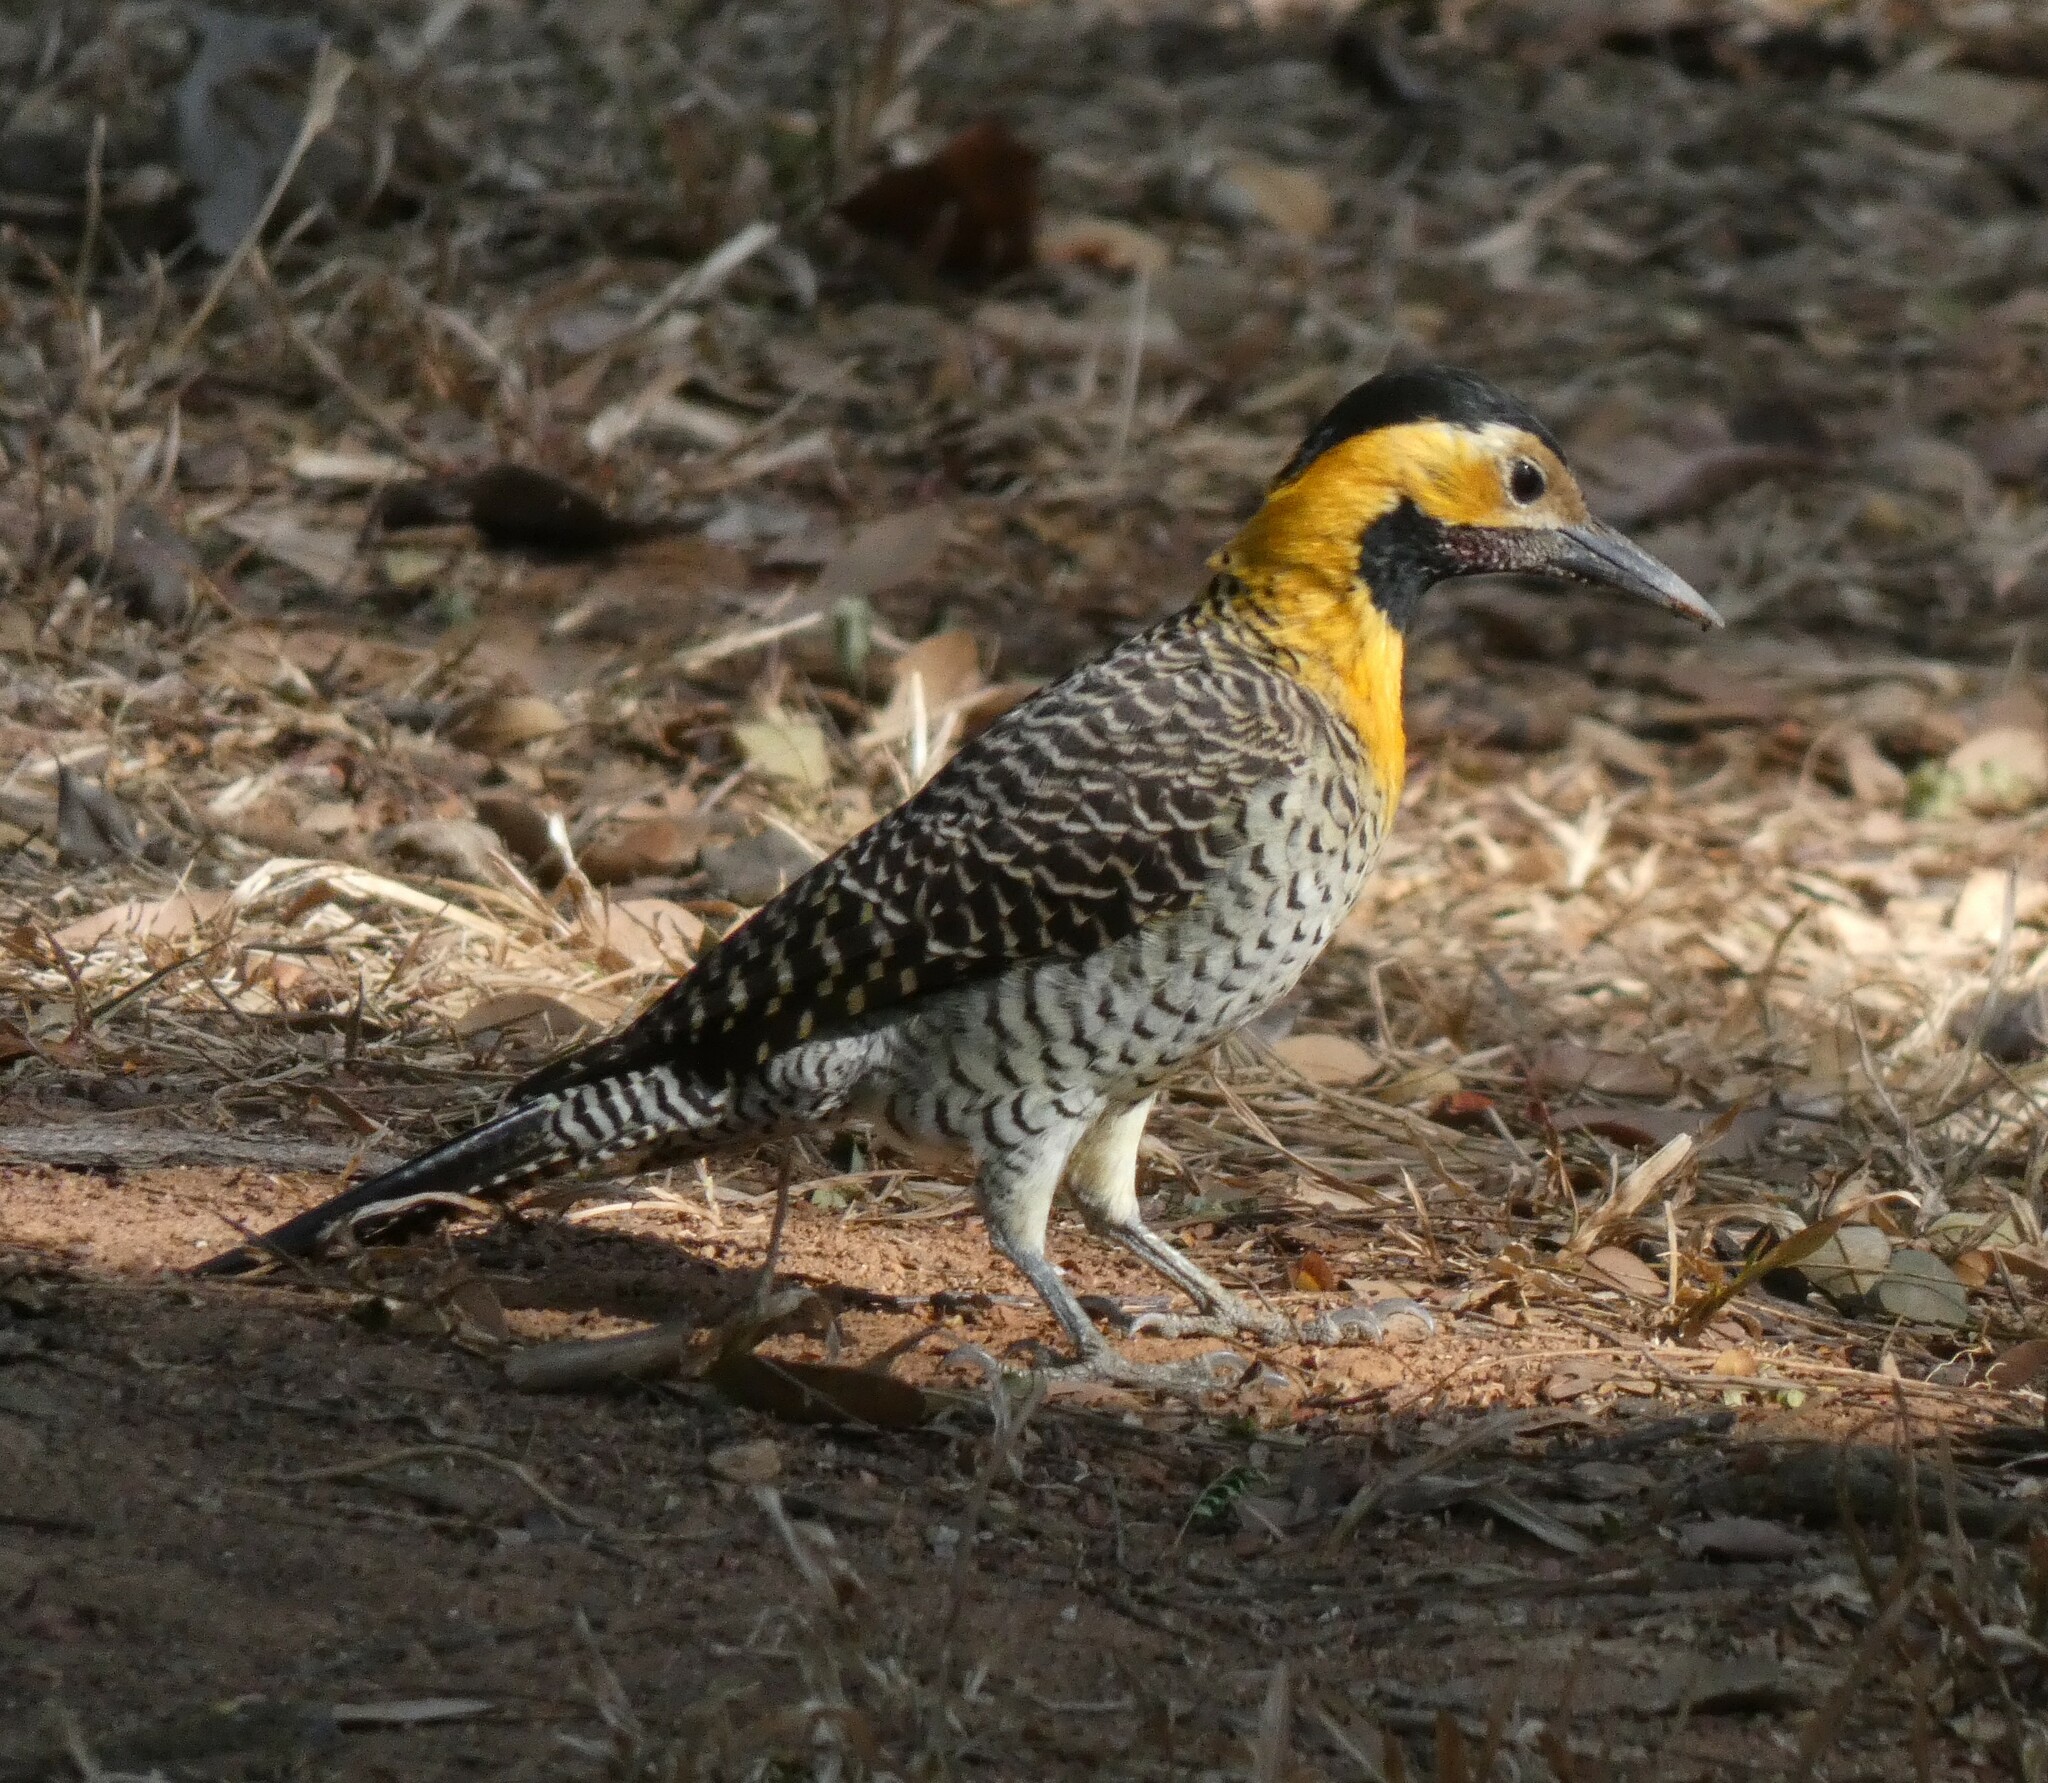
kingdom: Animalia
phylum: Chordata
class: Aves
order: Piciformes
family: Picidae
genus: Colaptes
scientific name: Colaptes campestris
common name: Campo flicker
